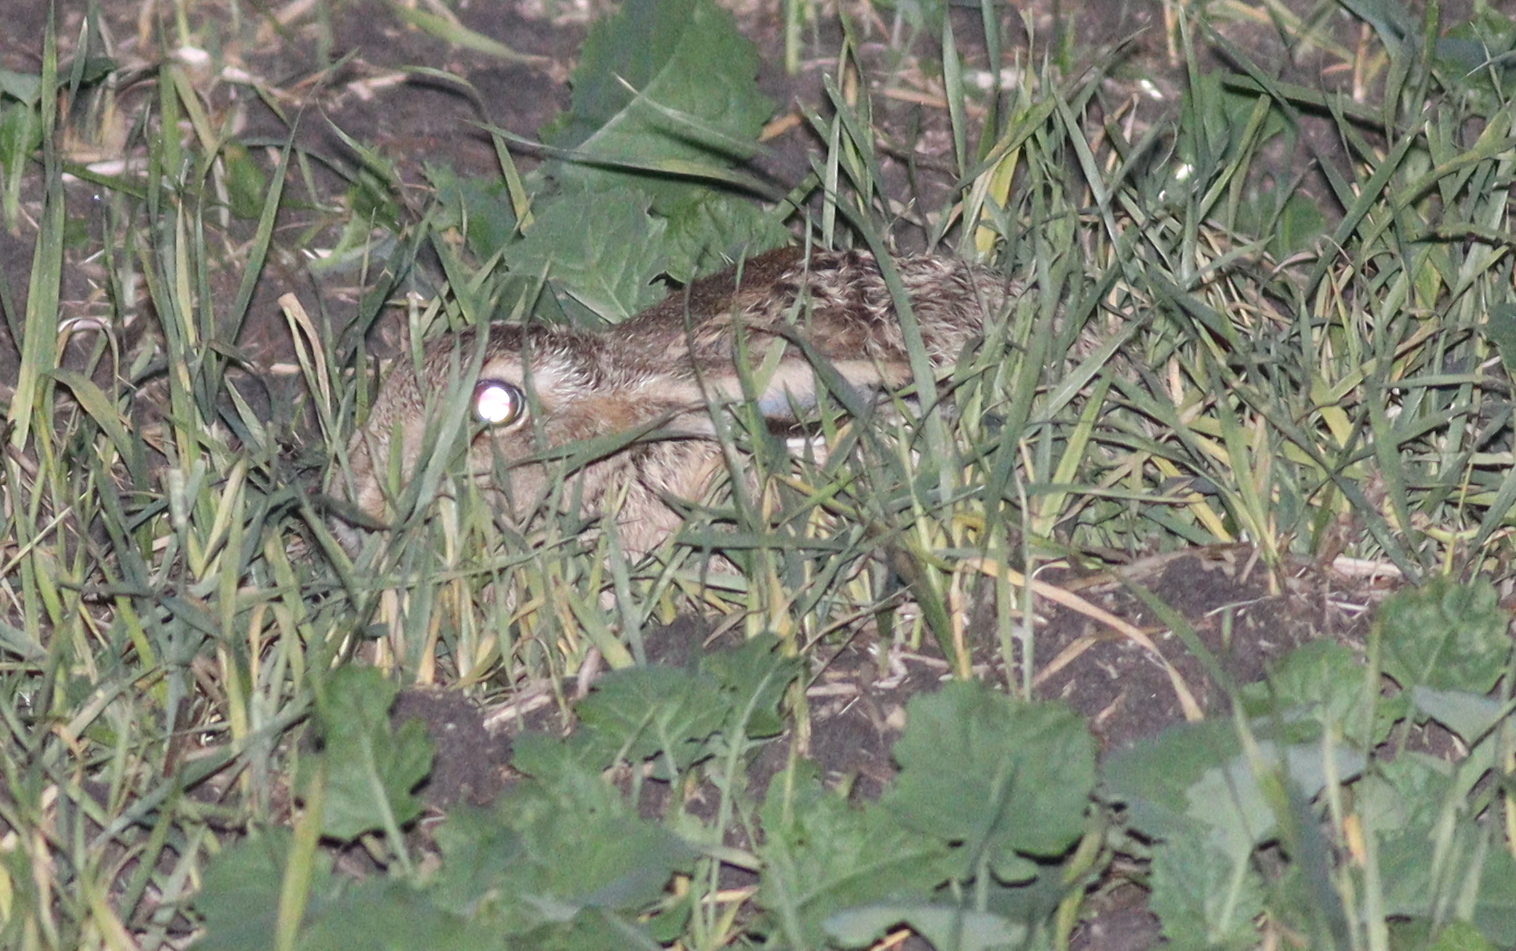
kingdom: Animalia
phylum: Chordata
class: Mammalia
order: Lagomorpha
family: Leporidae
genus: Lepus
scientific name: Lepus europaeus
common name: European hare
